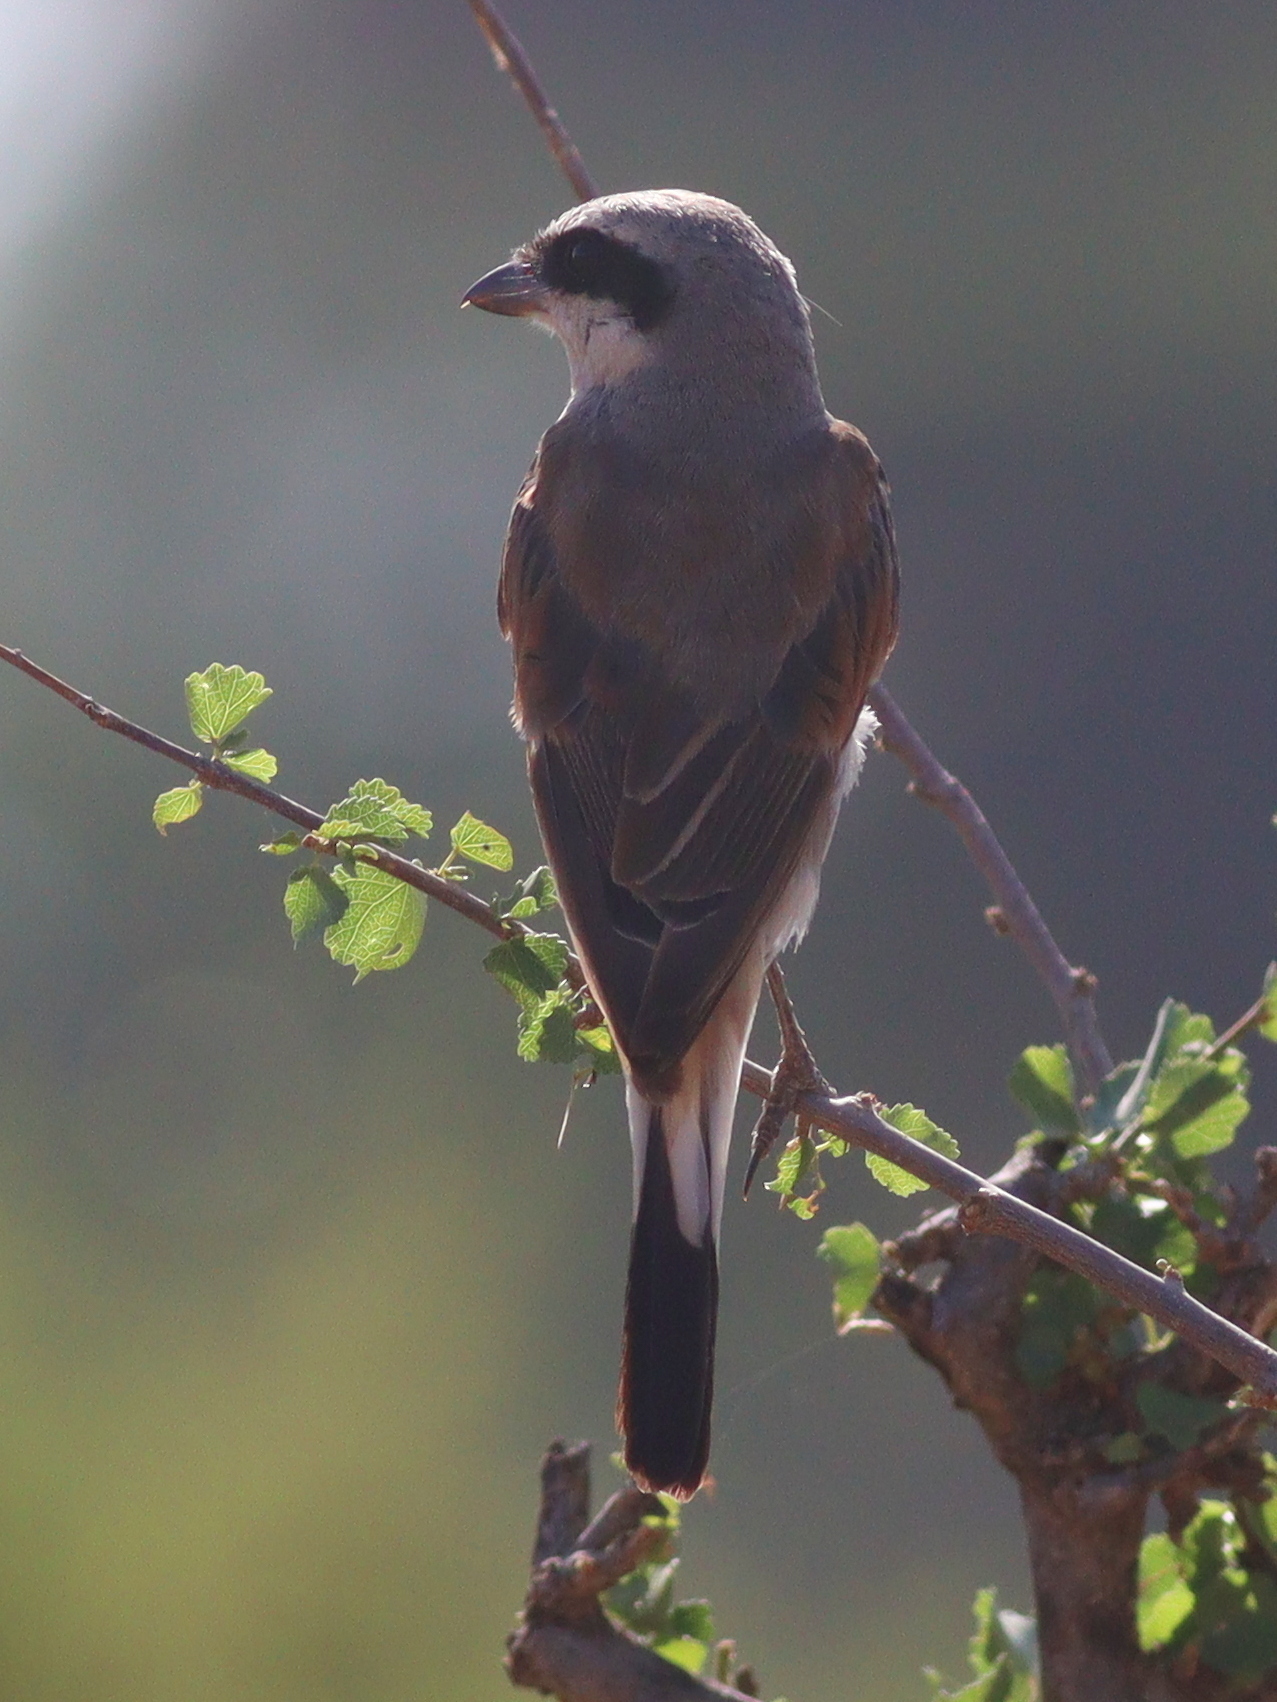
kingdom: Animalia
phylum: Chordata
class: Aves
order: Passeriformes
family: Laniidae
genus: Lanius
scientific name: Lanius collurio
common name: Red-backed shrike
